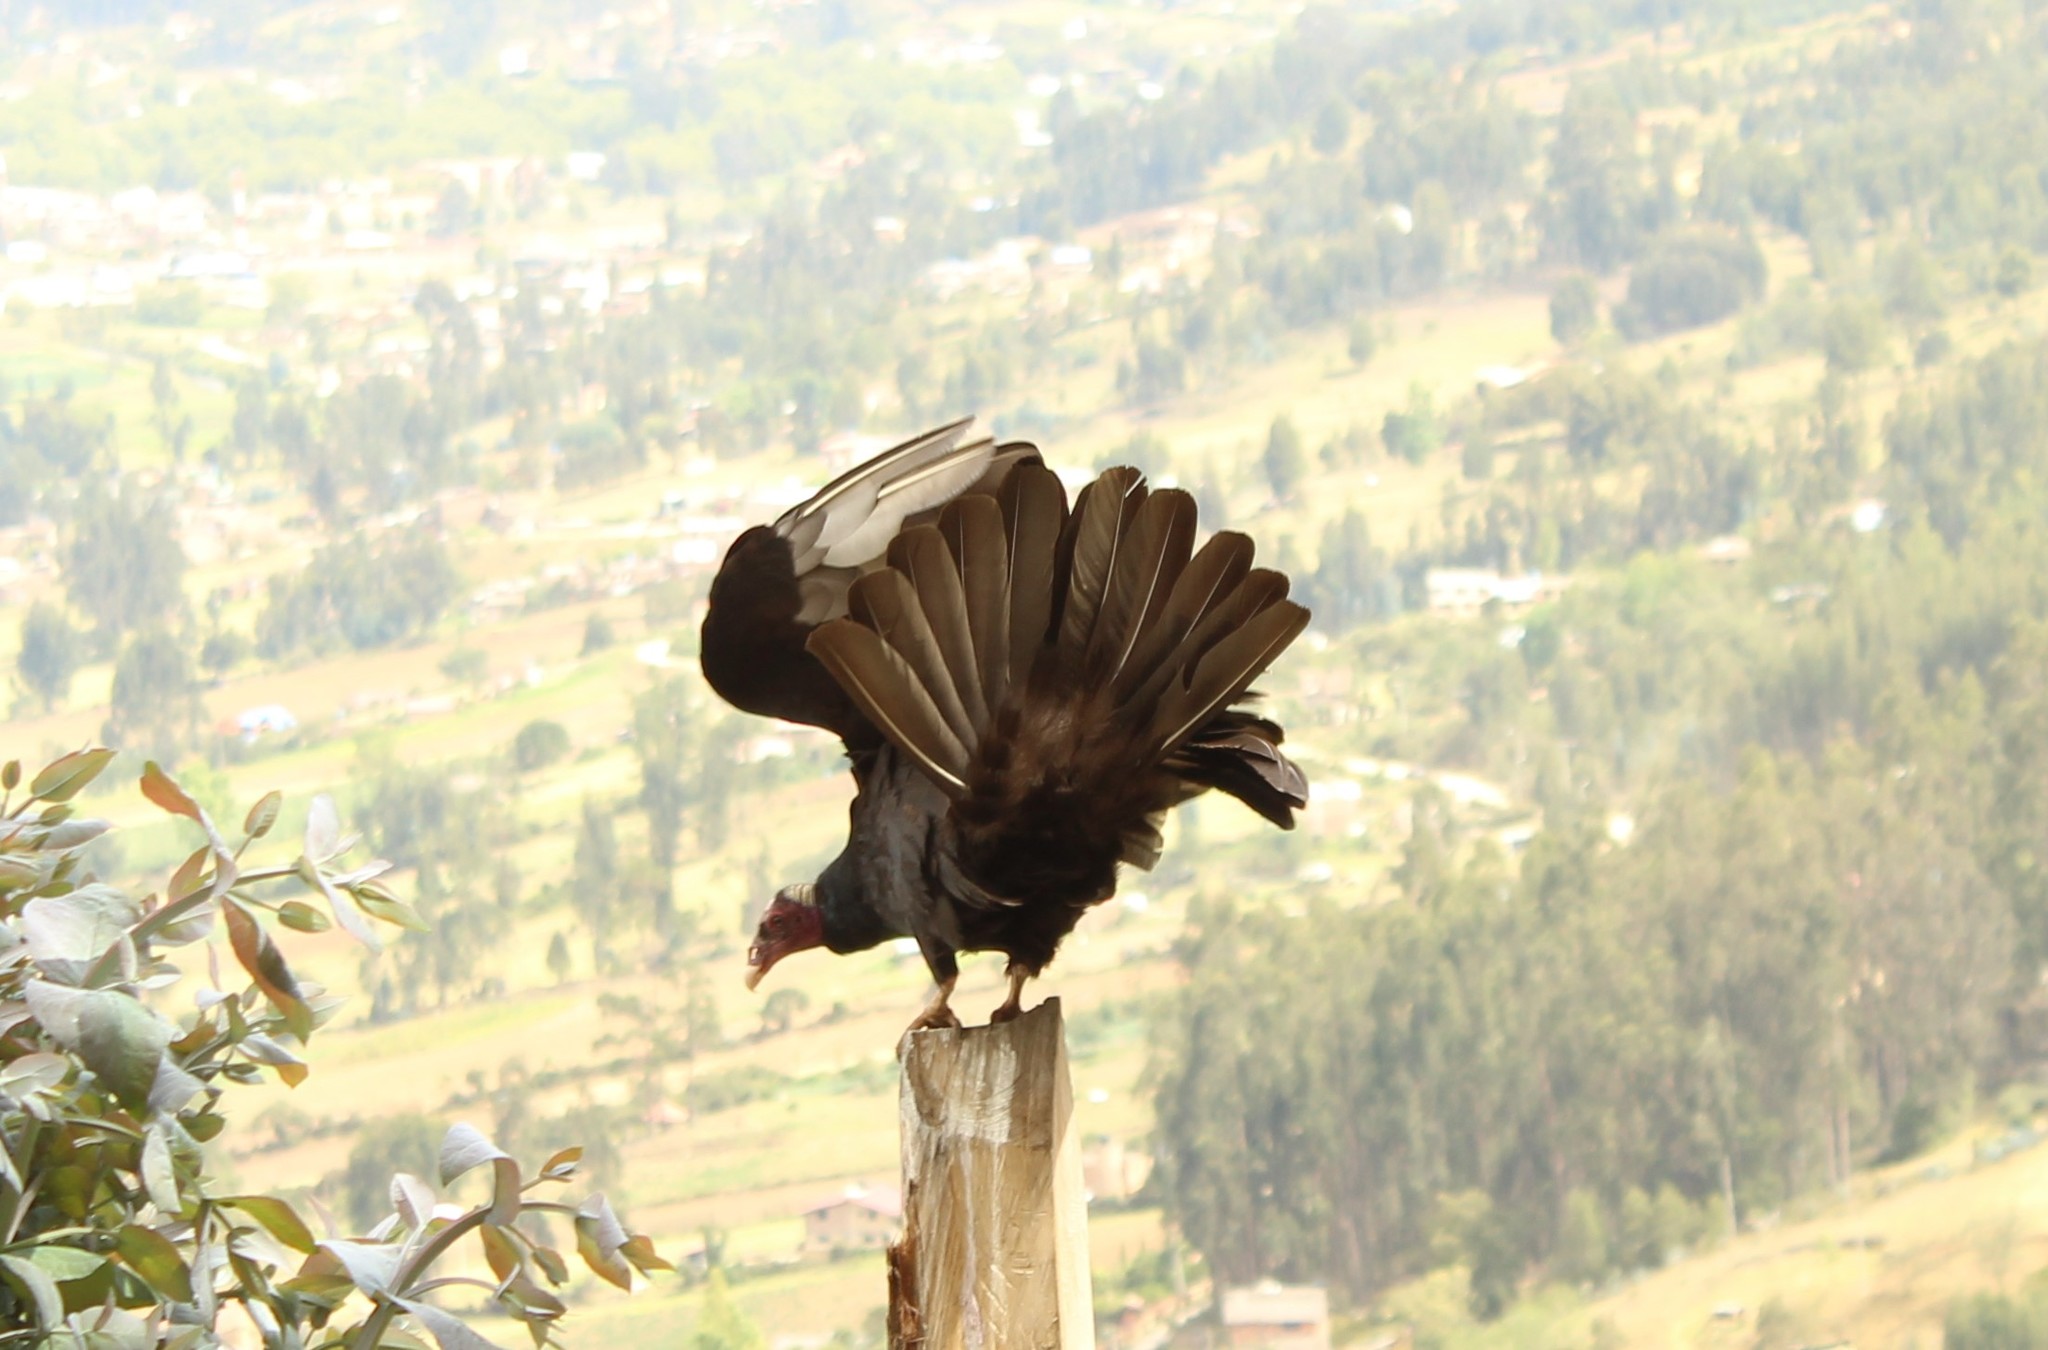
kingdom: Animalia
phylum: Chordata
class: Aves
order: Accipitriformes
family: Cathartidae
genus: Cathartes
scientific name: Cathartes aura
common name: Turkey vulture
